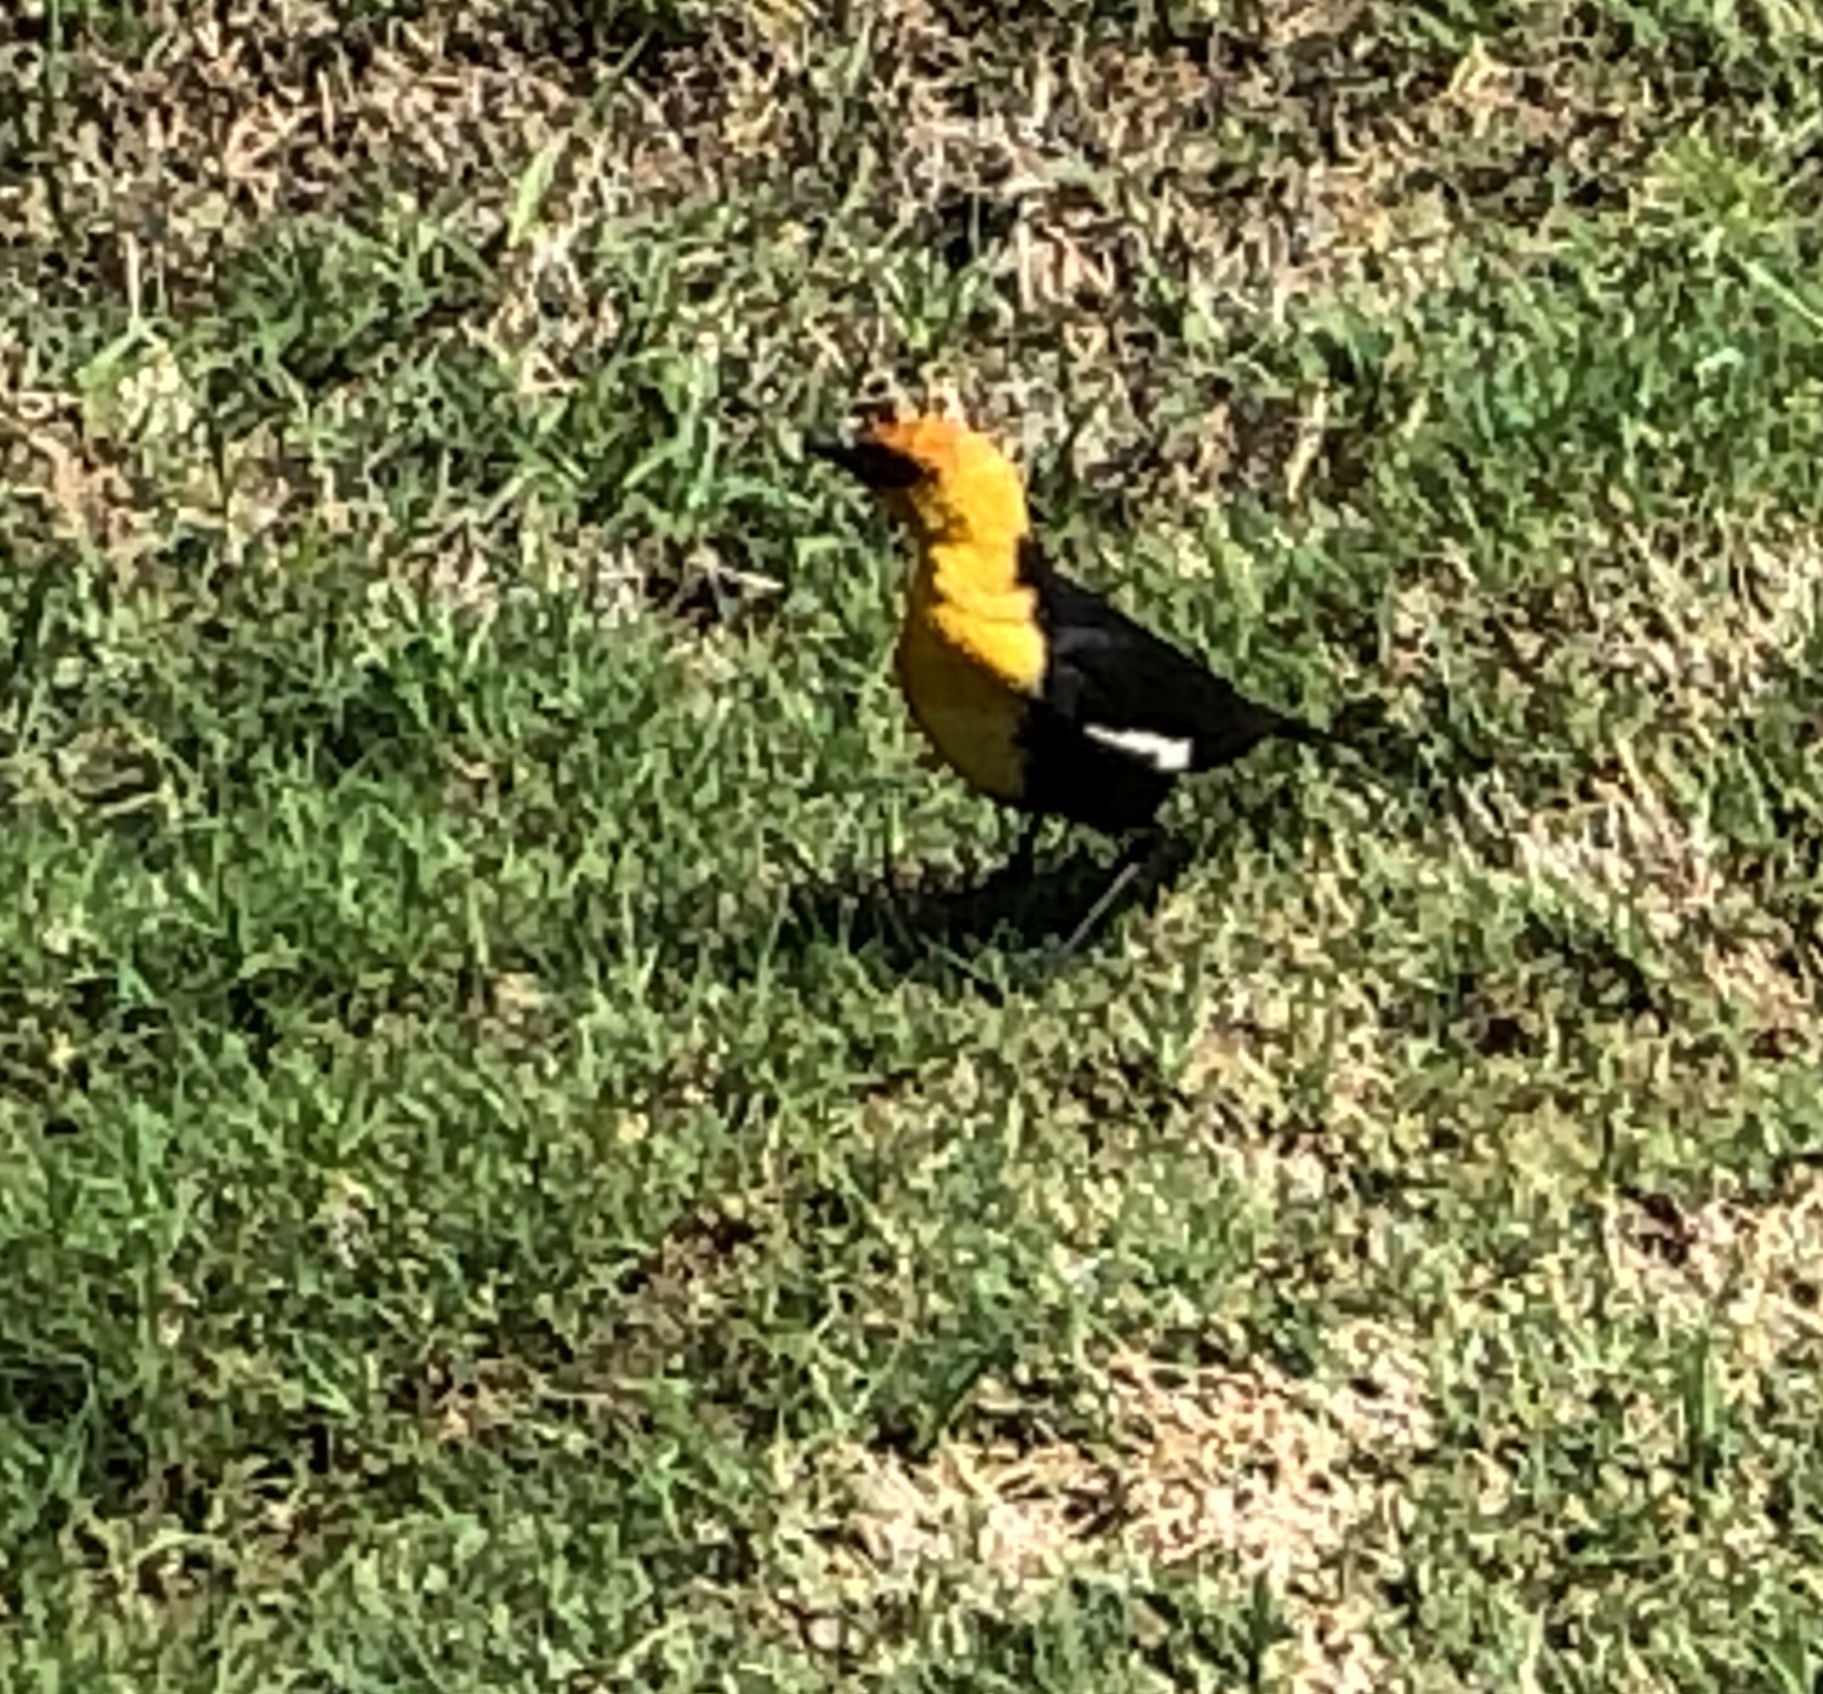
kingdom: Animalia
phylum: Chordata
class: Aves
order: Passeriformes
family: Icteridae
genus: Xanthocephalus
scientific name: Xanthocephalus xanthocephalus
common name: Yellow-headed blackbird
